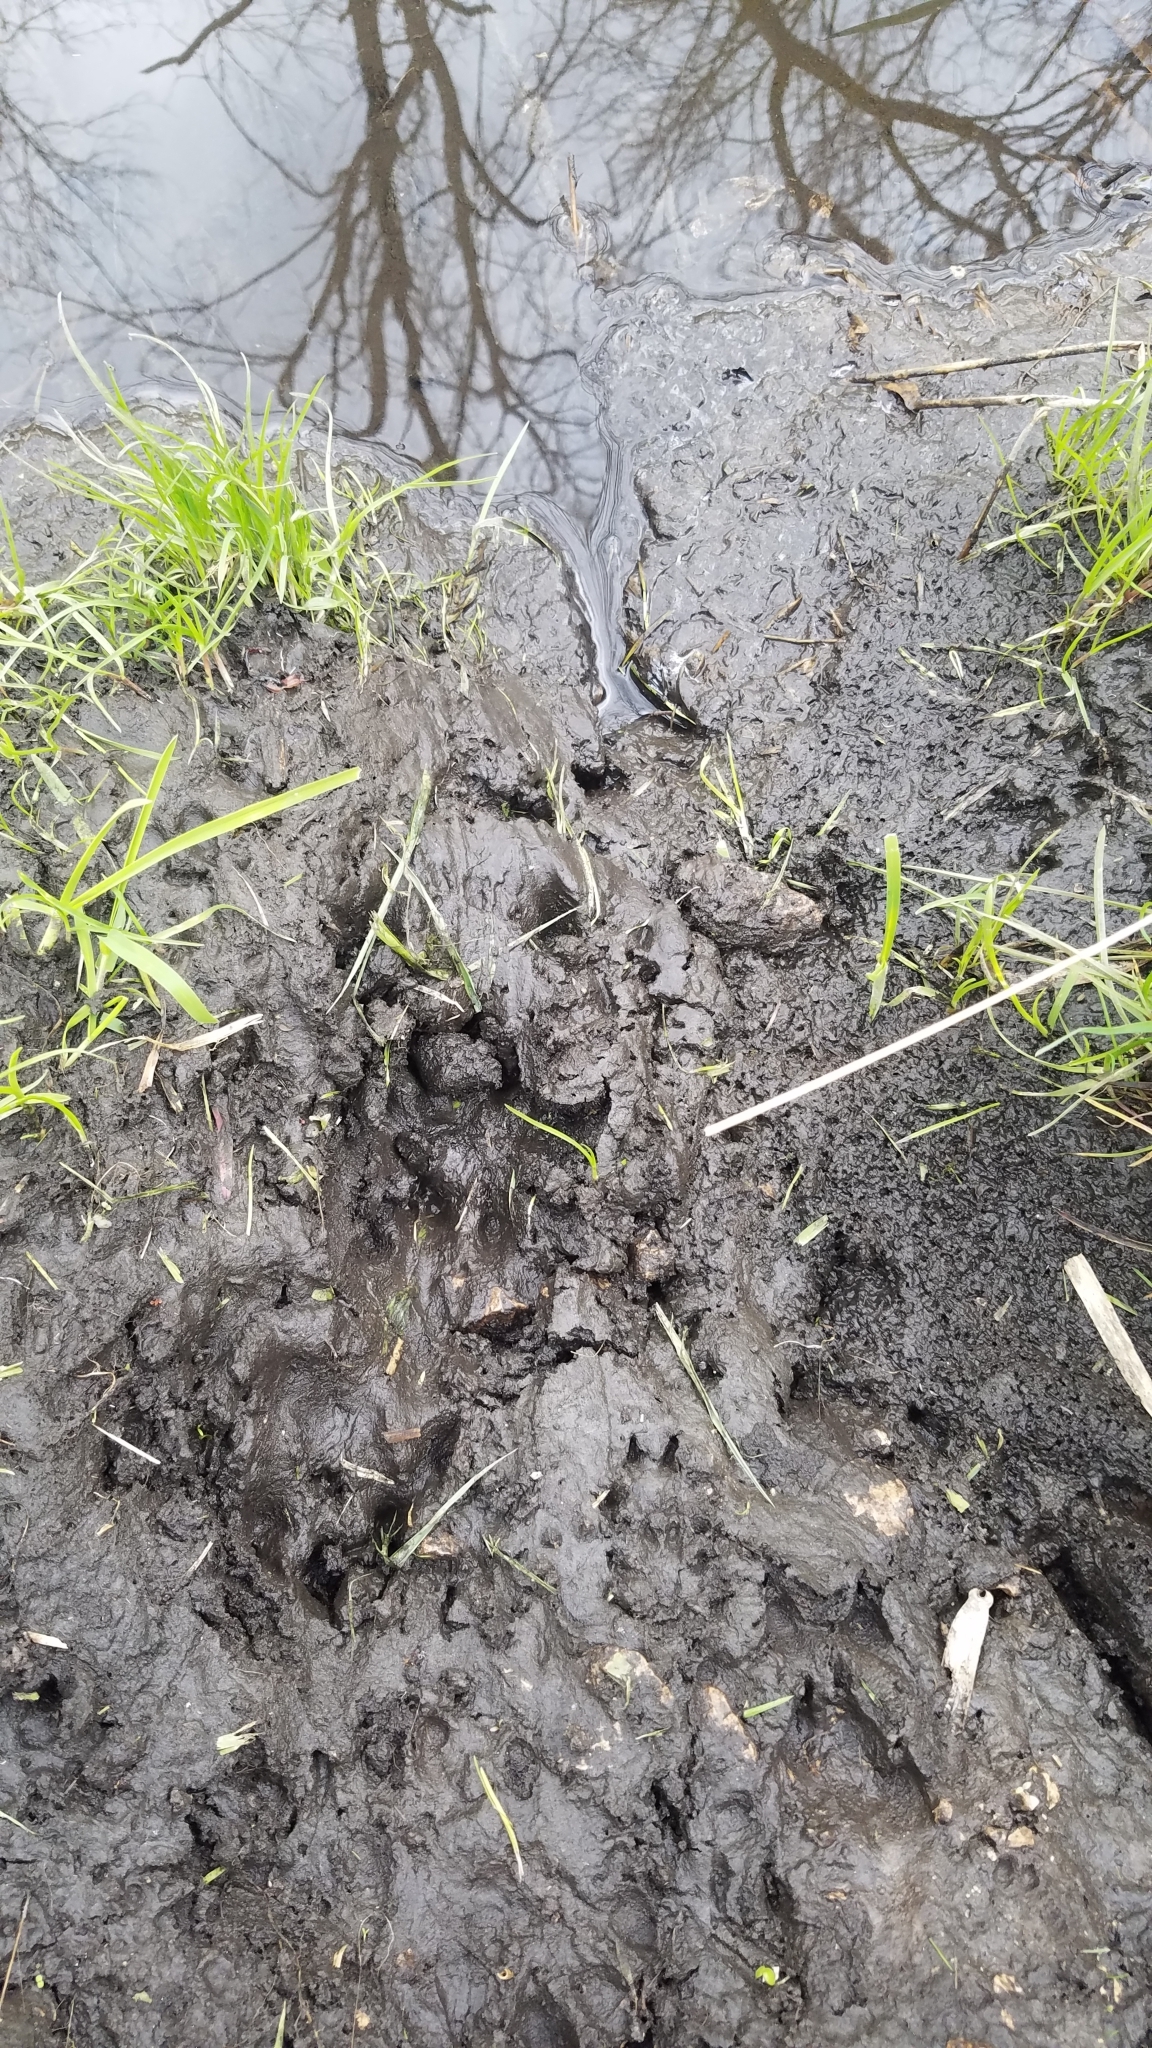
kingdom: Animalia
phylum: Chordata
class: Mammalia
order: Carnivora
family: Mustelidae
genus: Lontra
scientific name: Lontra canadensis
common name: North american river otter
